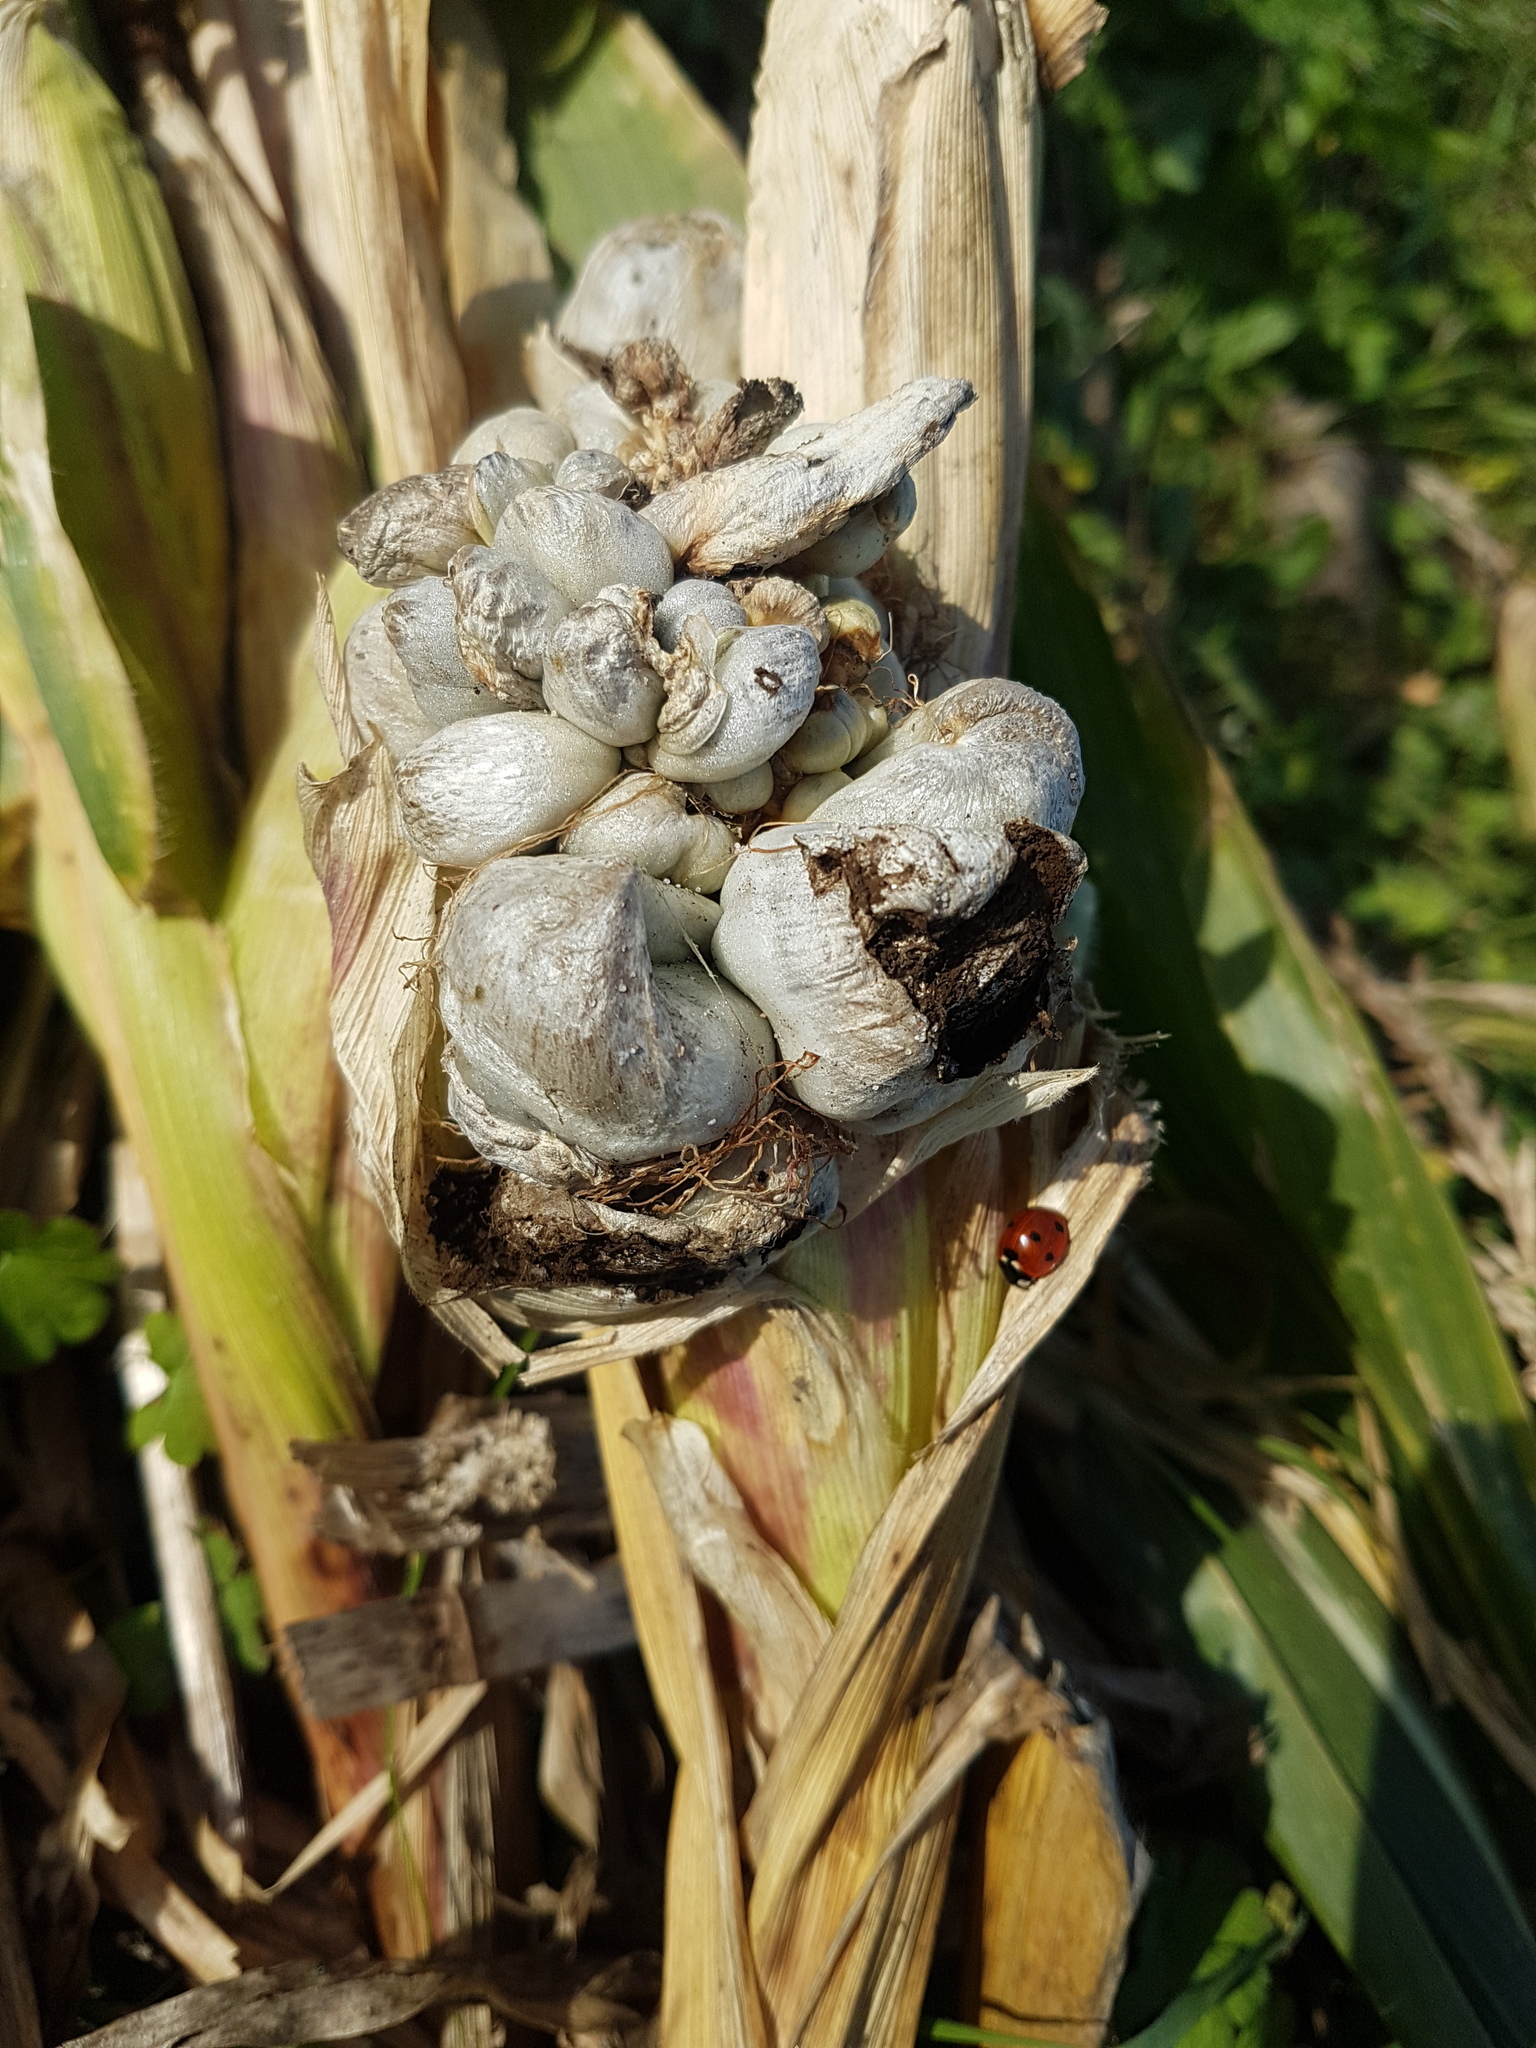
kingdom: Fungi
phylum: Basidiomycota
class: Ustilaginomycetes
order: Ustilaginales
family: Ustilaginaceae
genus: Mycosarcoma
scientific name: Mycosarcoma maydis
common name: Corn smut
